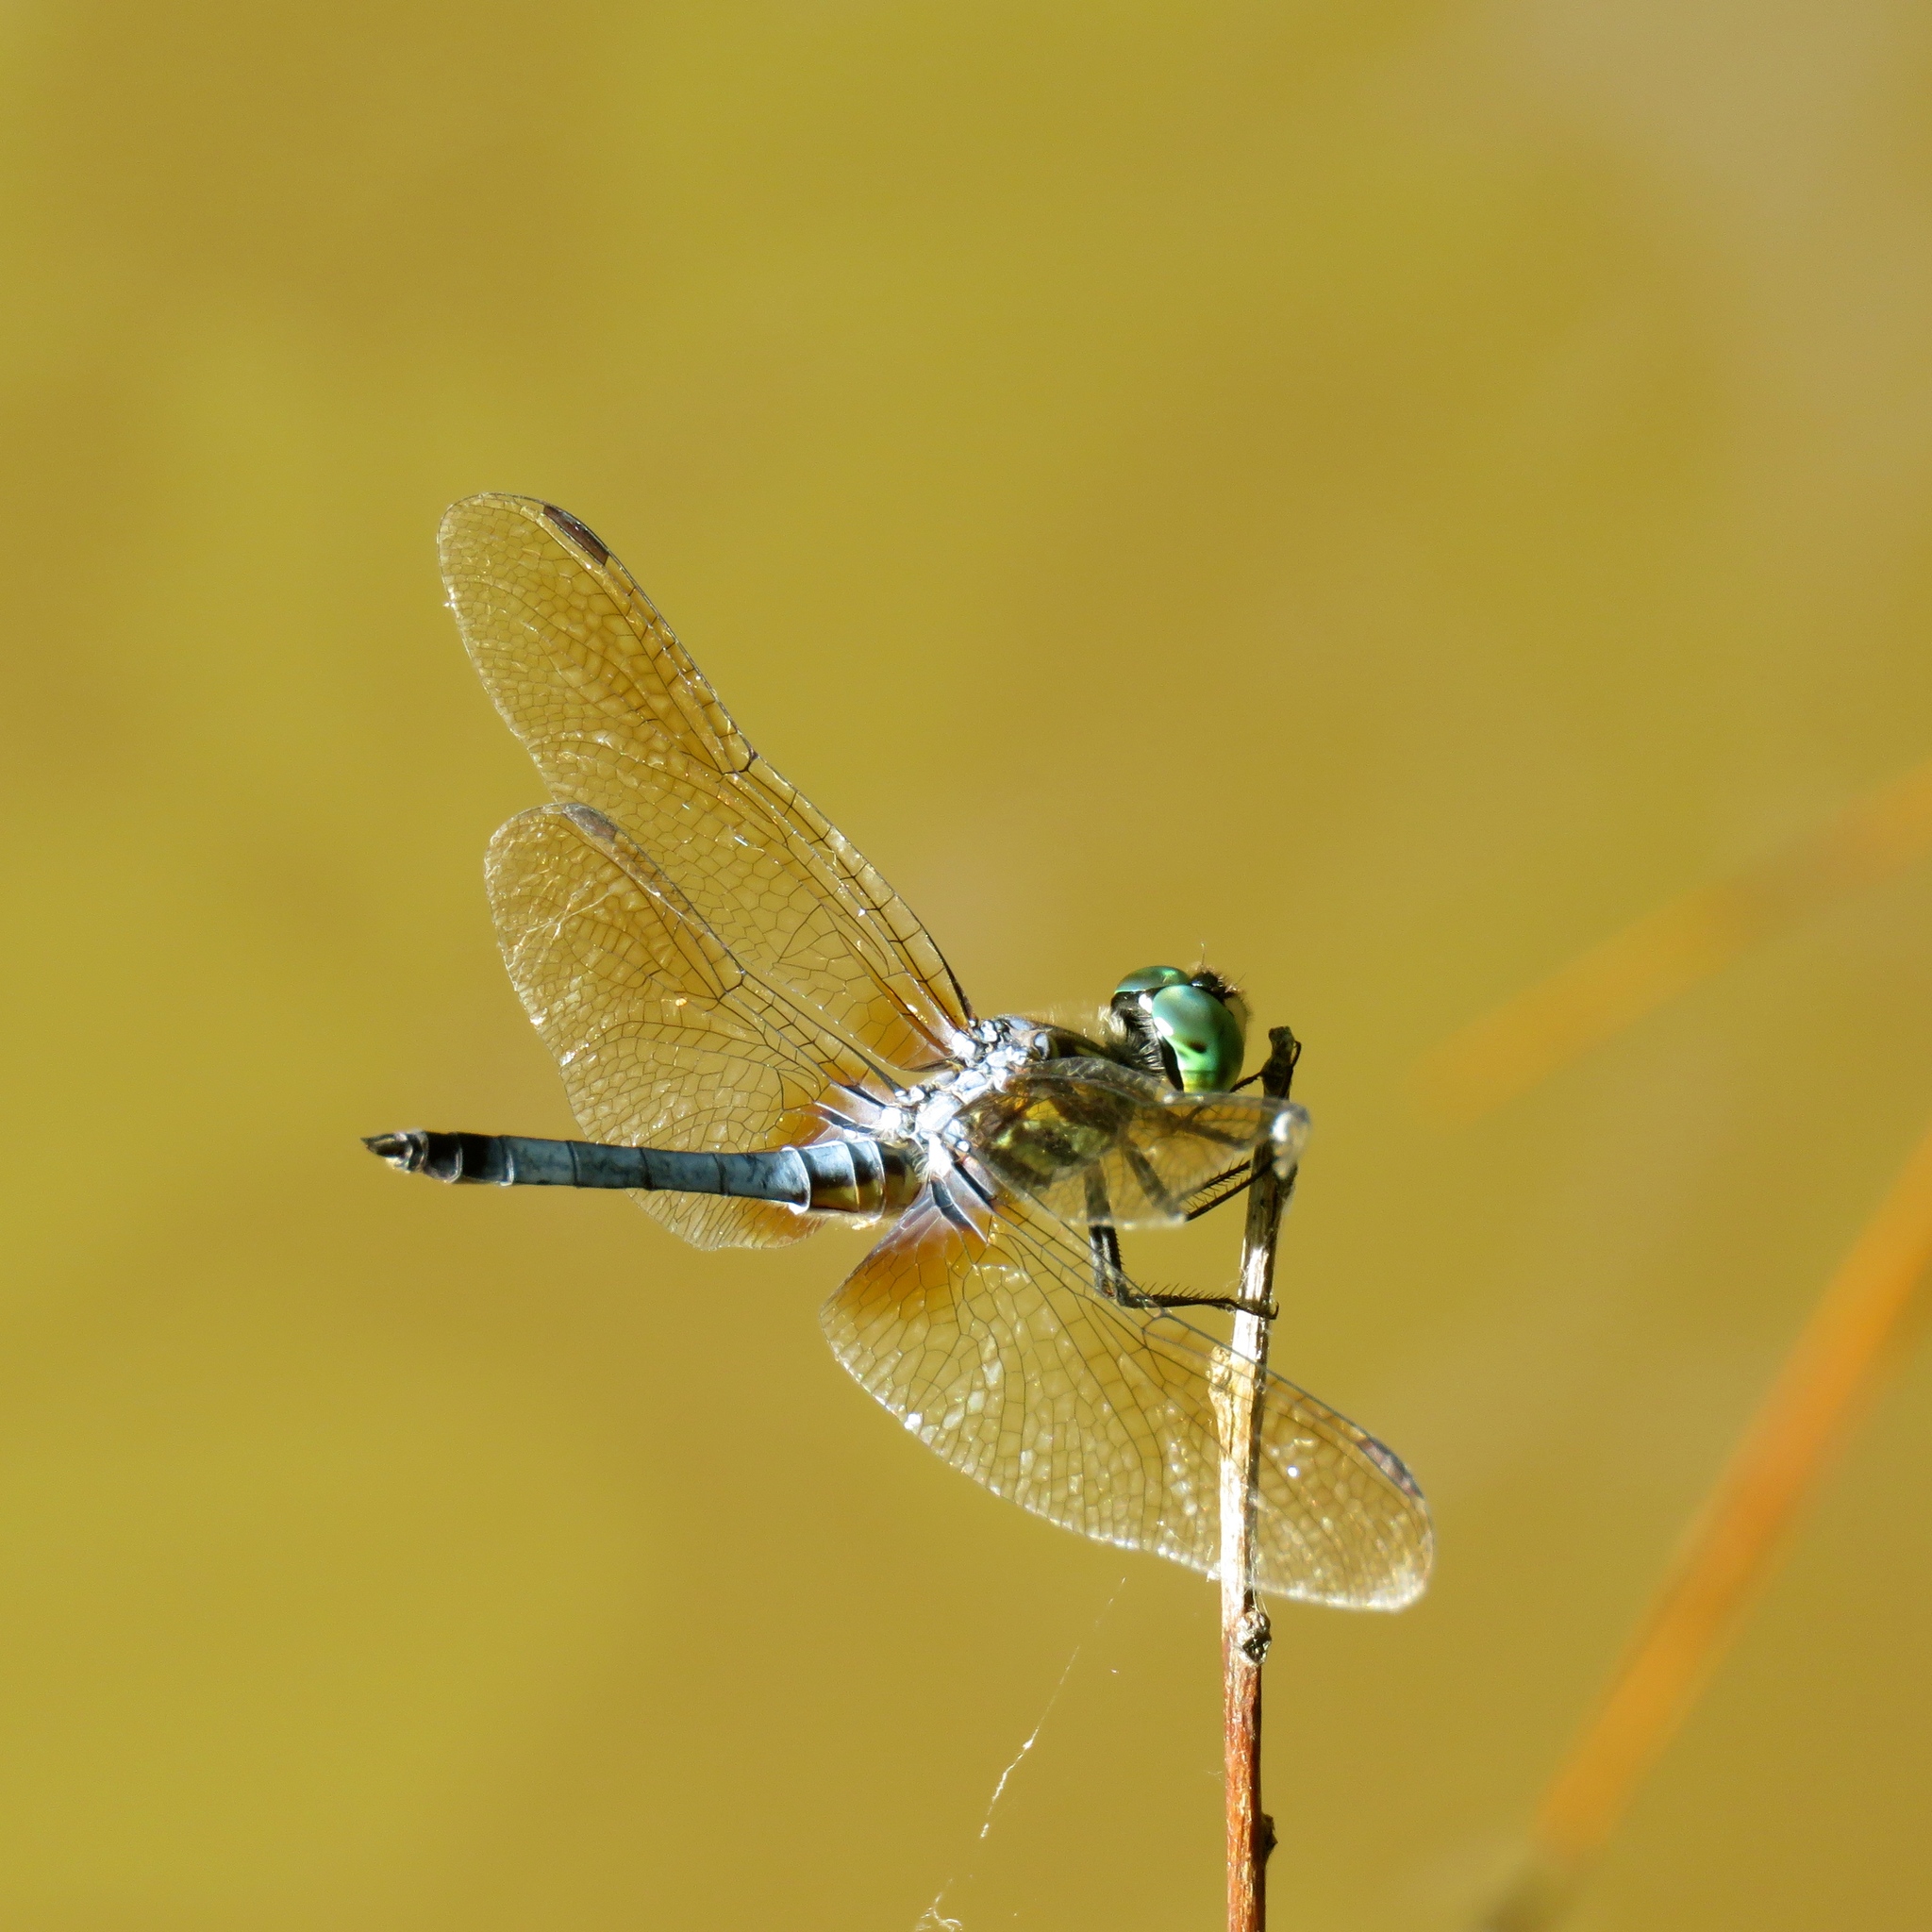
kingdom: Animalia
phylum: Arthropoda
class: Insecta
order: Odonata
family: Libellulidae
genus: Pachydiplax
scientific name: Pachydiplax longipennis
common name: Blue dasher
